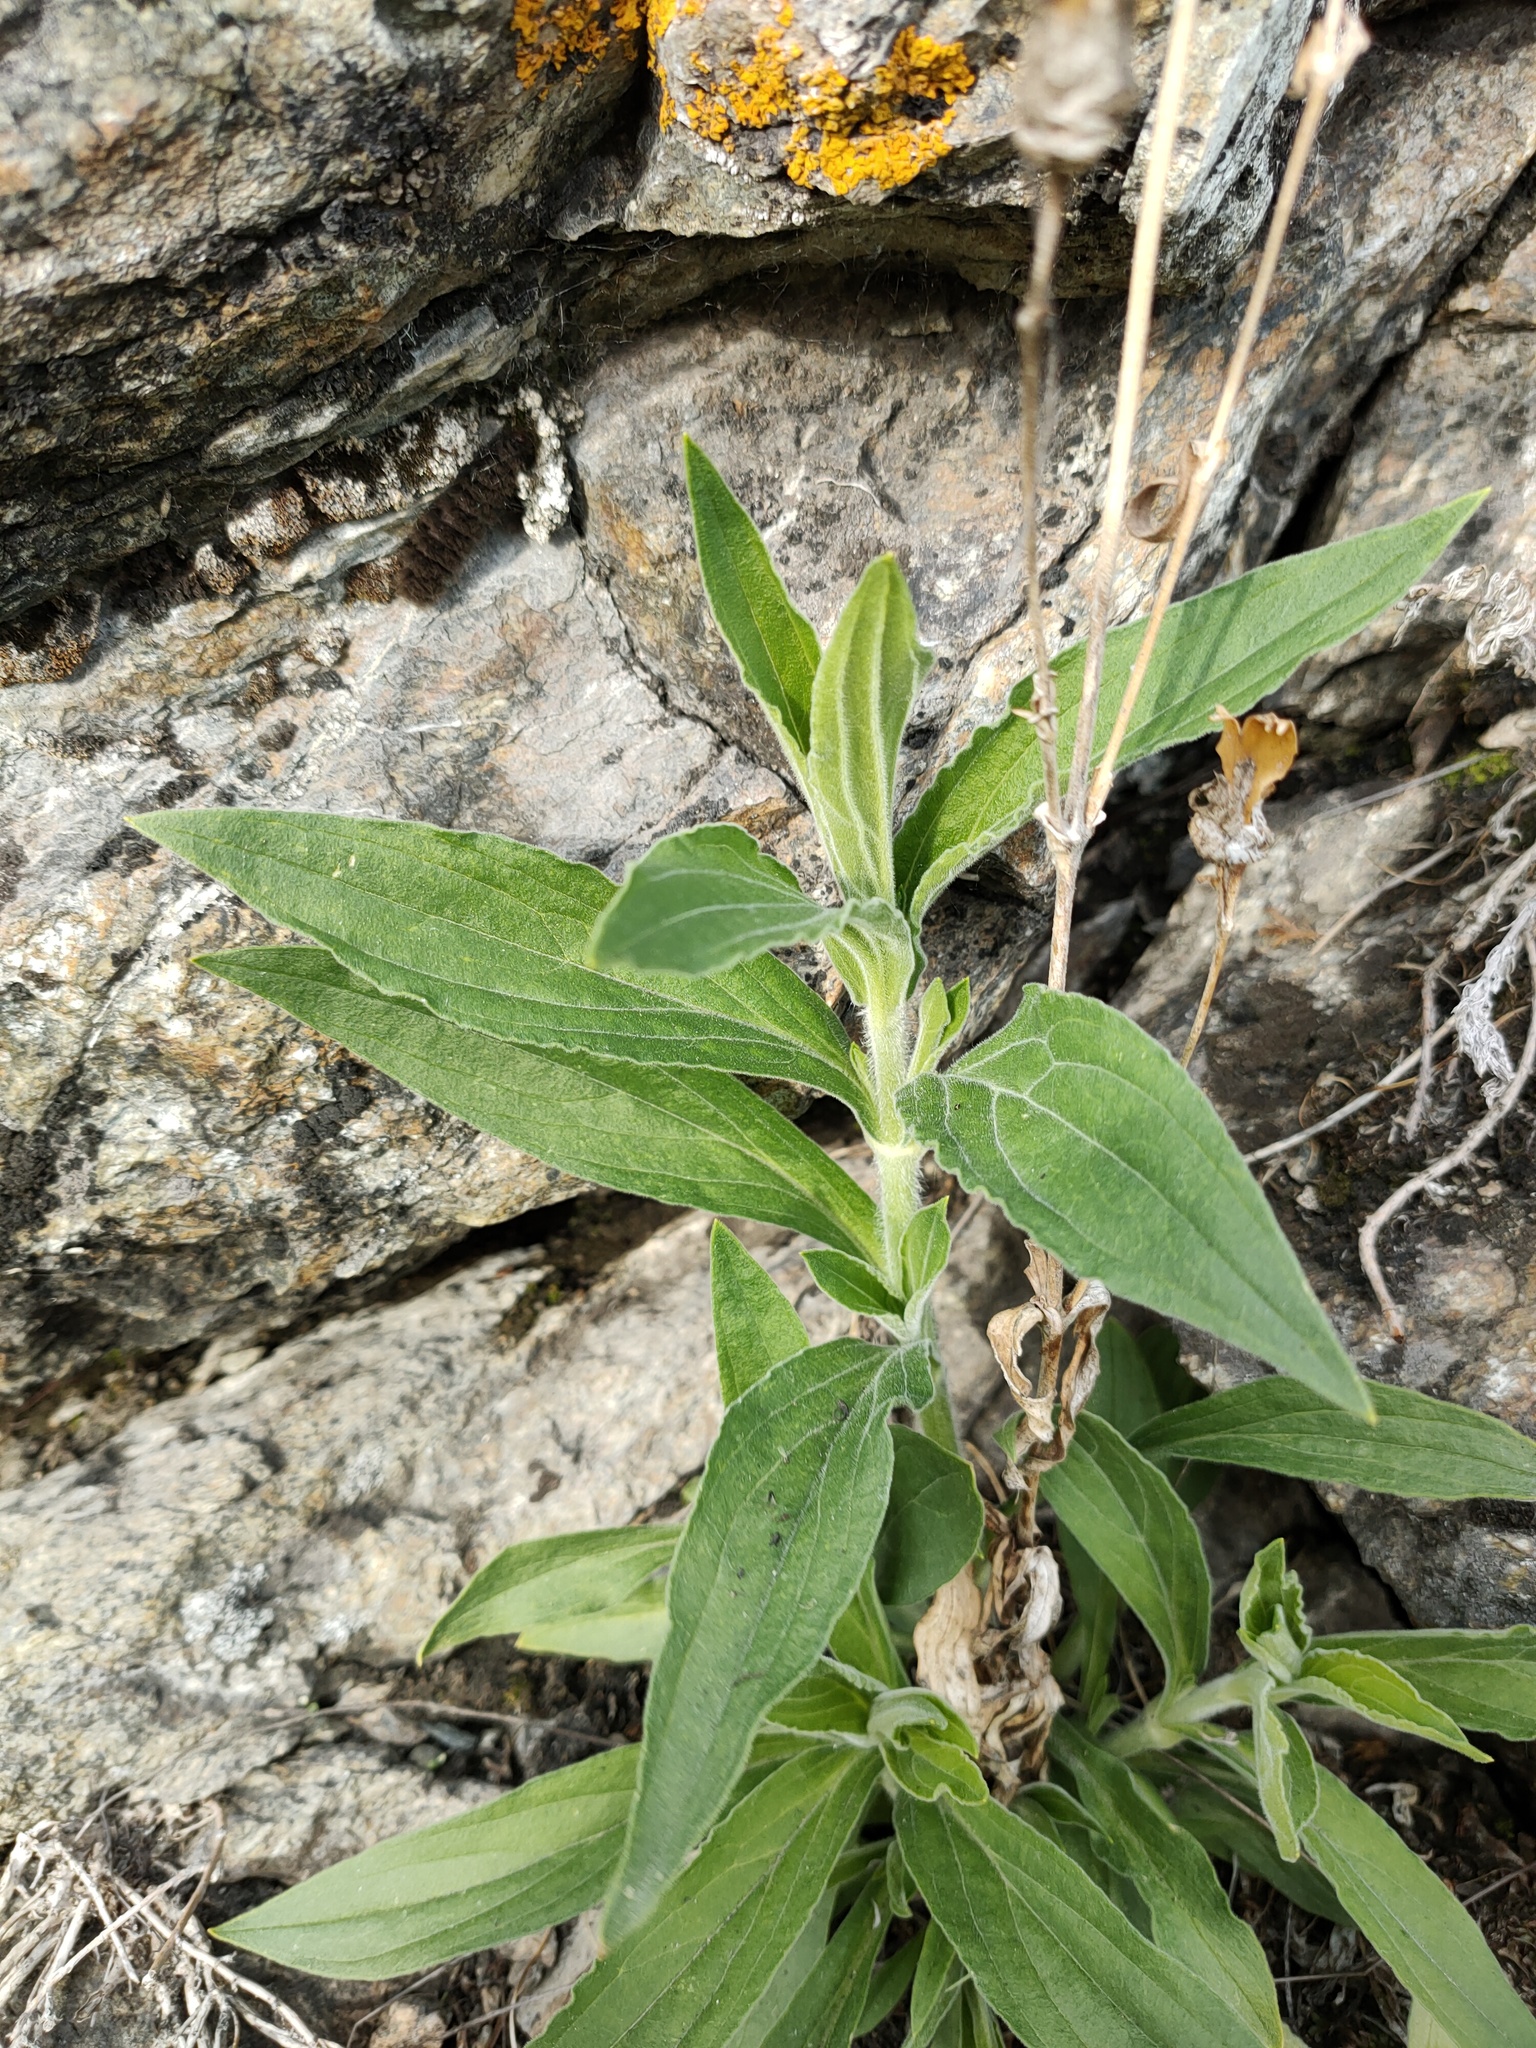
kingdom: Plantae
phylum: Tracheophyta
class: Magnoliopsida
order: Caryophyllales
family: Caryophyllaceae
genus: Silene
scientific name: Silene latifolia
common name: White campion
